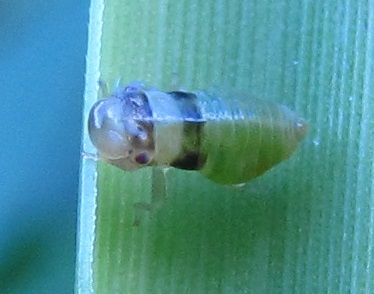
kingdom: Animalia
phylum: Arthropoda
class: Insecta
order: Hemiptera
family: Aphrophoridae
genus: Lepyronia
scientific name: Lepyronia quadrangularis
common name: Diamond-backed spittlebug
